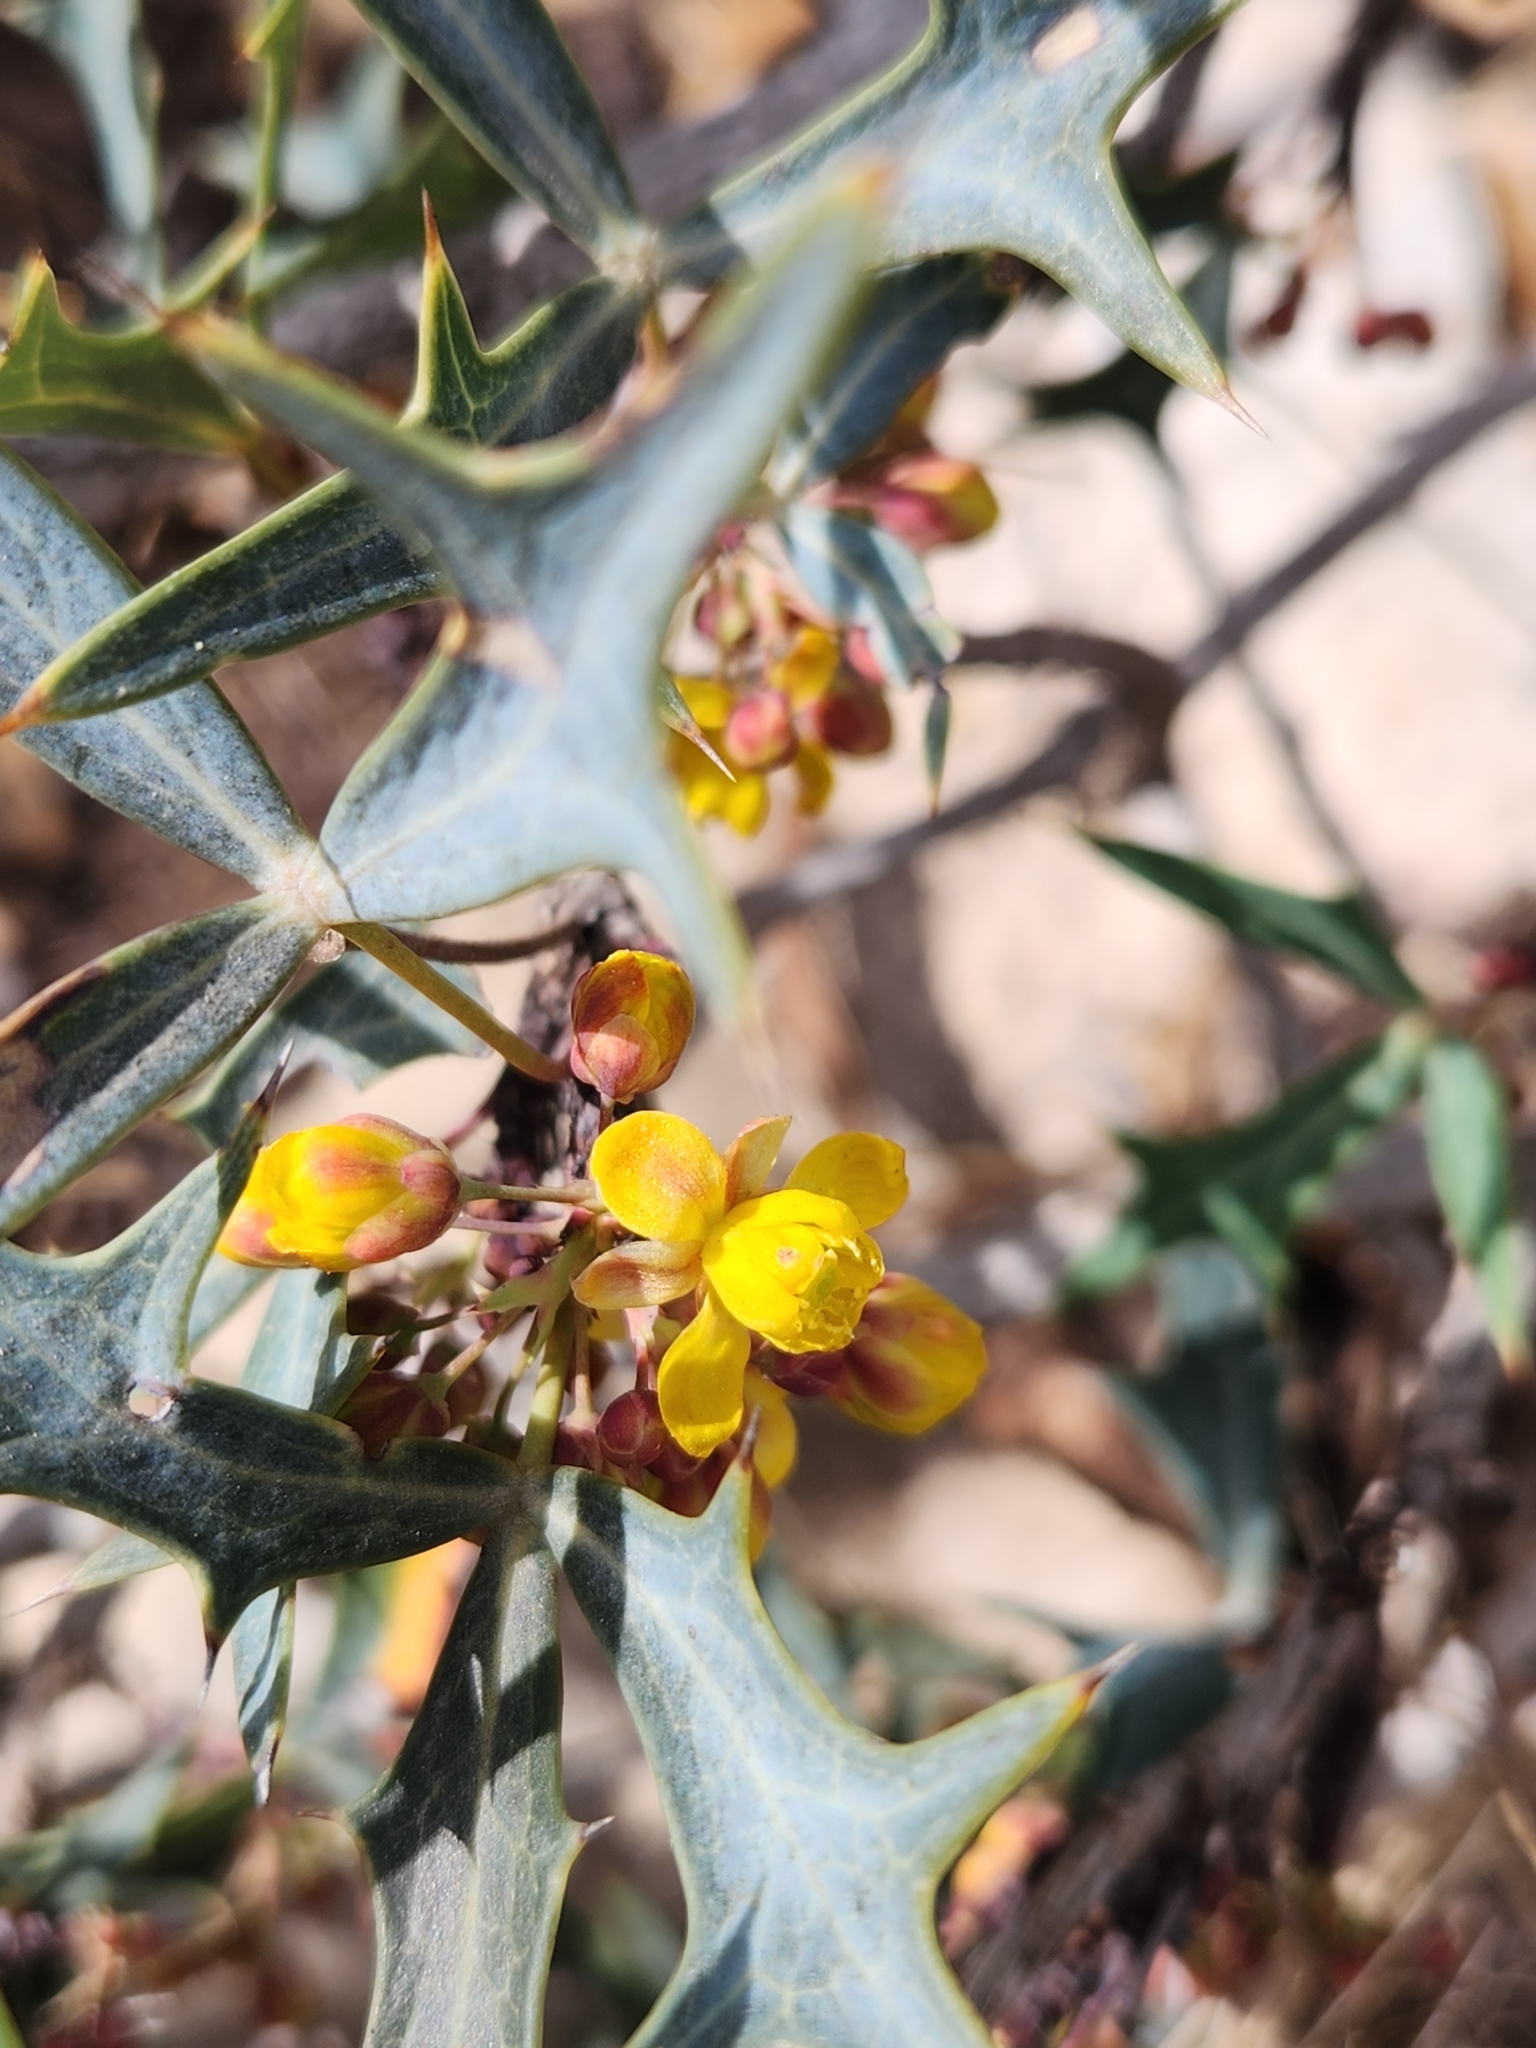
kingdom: Plantae
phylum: Tracheophyta
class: Magnoliopsida
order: Ranunculales
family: Berberidaceae
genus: Alloberberis
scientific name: Alloberberis trifoliolata
